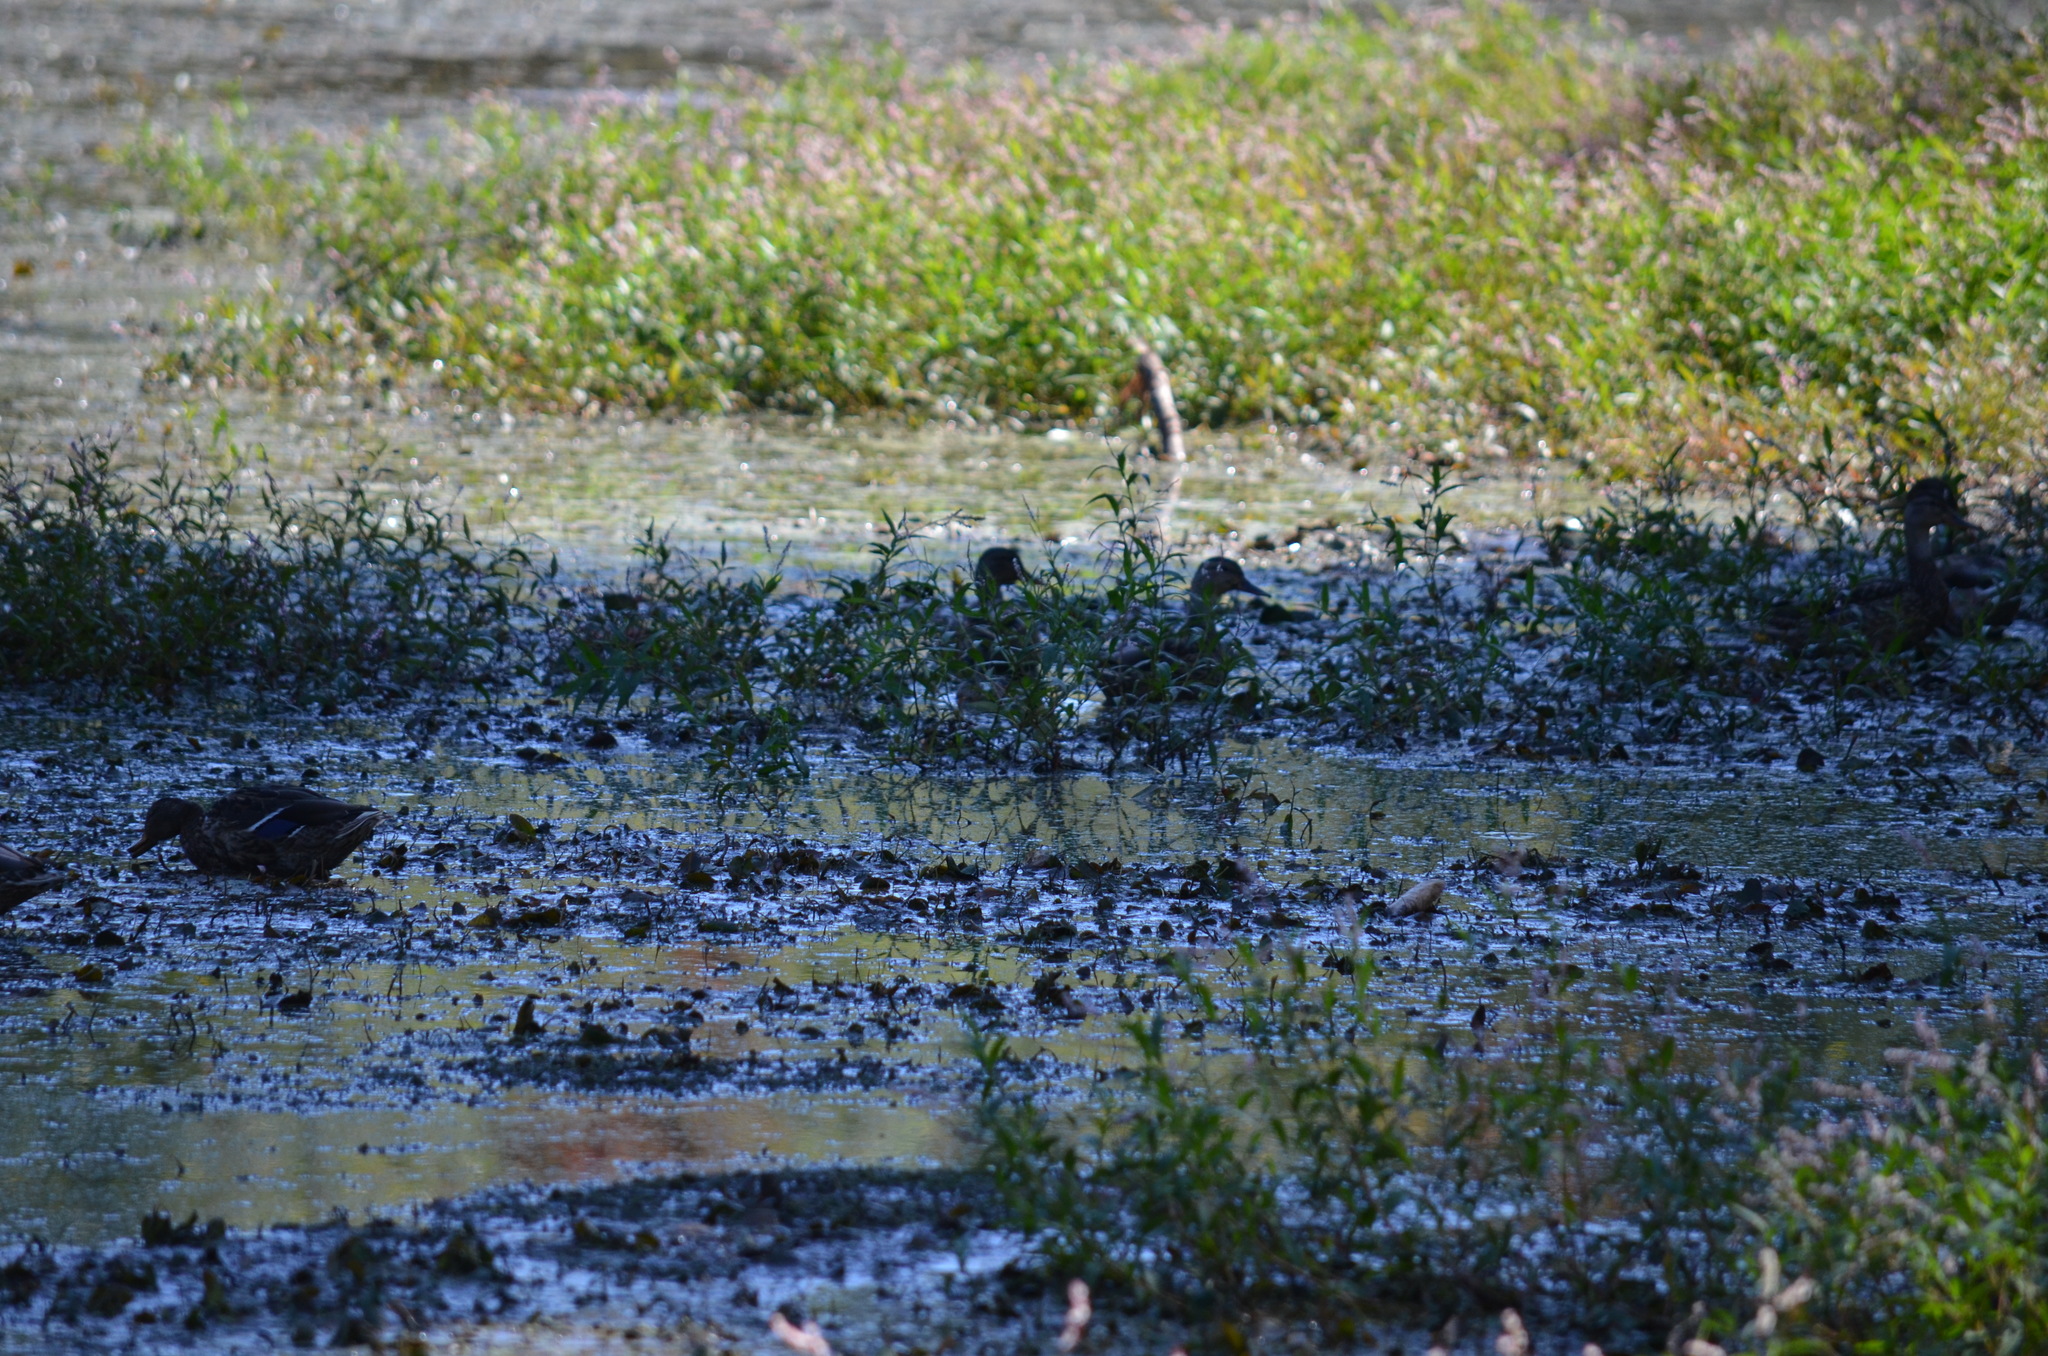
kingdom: Animalia
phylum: Chordata
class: Aves
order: Anseriformes
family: Anatidae
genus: Anas
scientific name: Anas platyrhynchos
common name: Mallard
